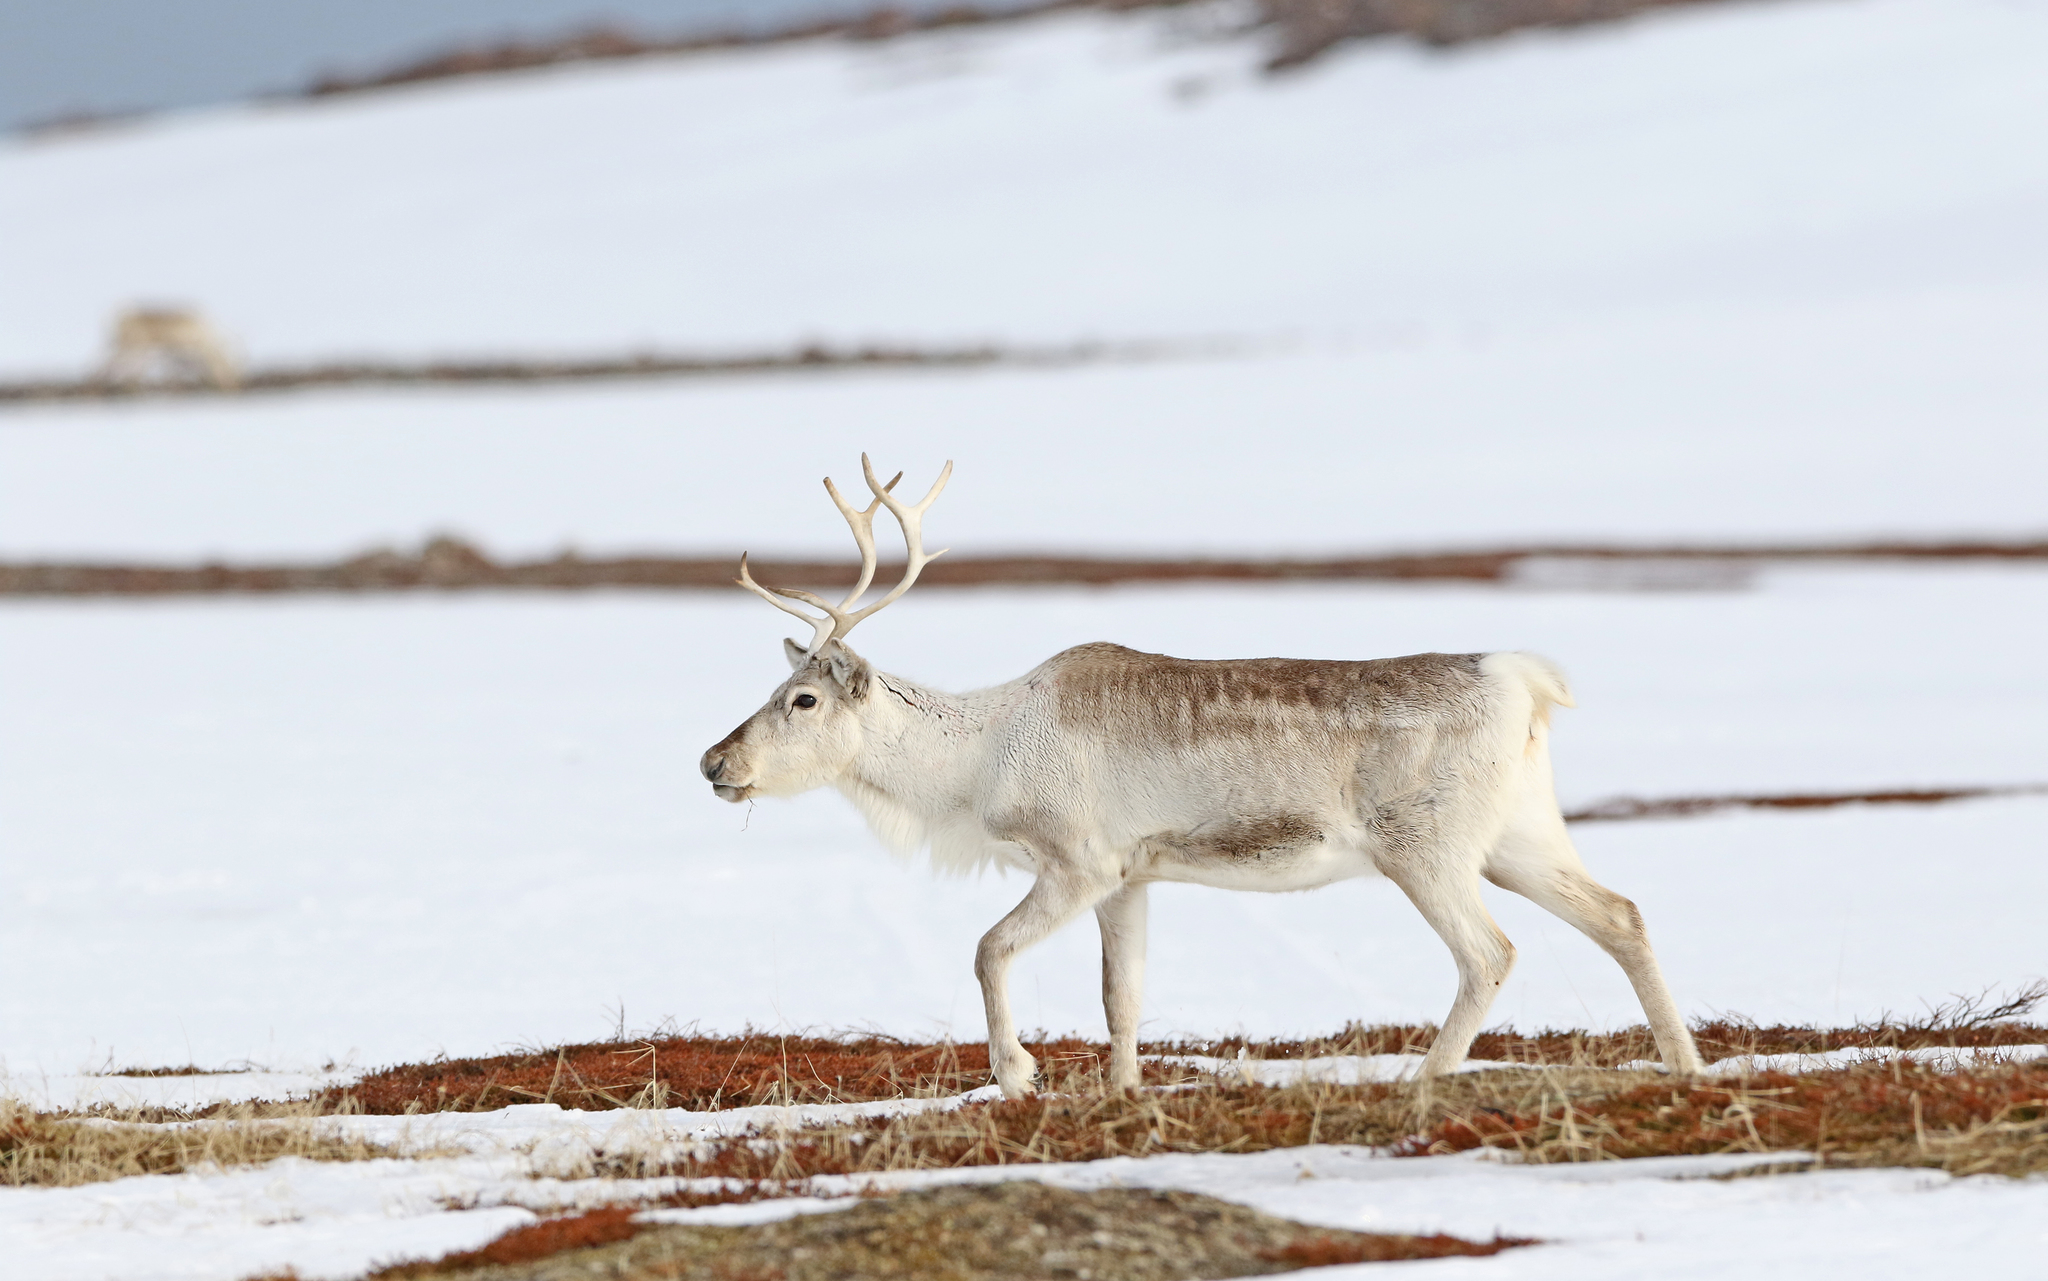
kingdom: Animalia
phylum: Chordata
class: Mammalia
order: Artiodactyla
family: Cervidae
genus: Rangifer
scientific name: Rangifer tarandus
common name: Reindeer
